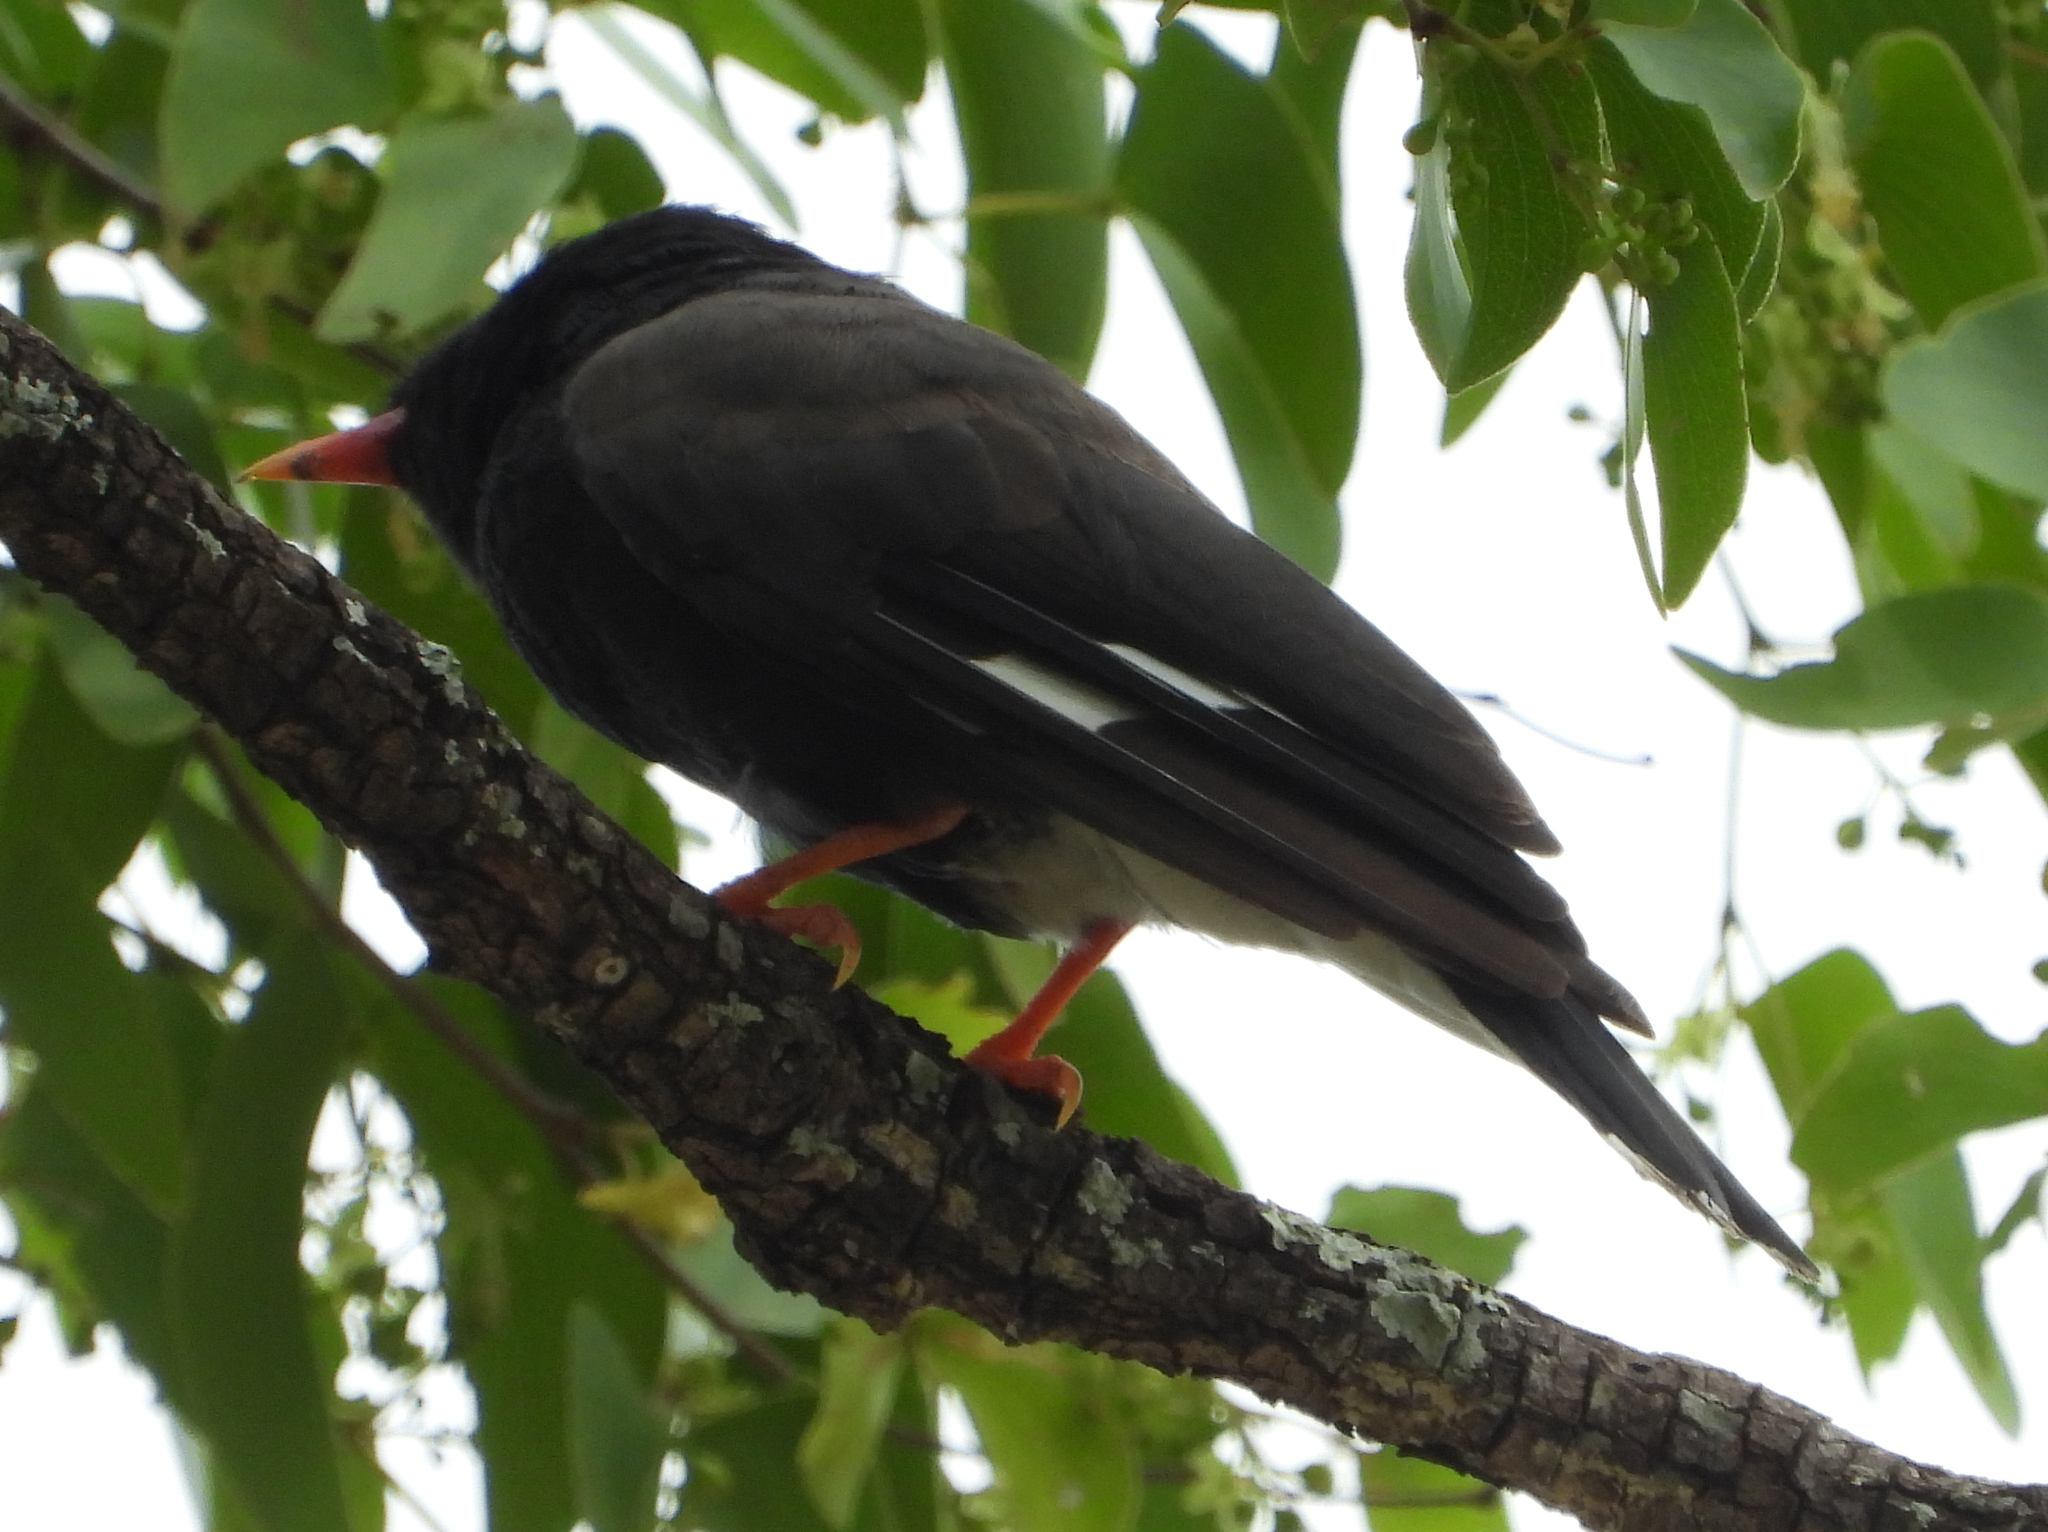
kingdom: Animalia
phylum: Chordata
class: Aves
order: Passeriformes
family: Prionopidae
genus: Prionops
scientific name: Prionops retzii
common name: Retz's helmetshrike
